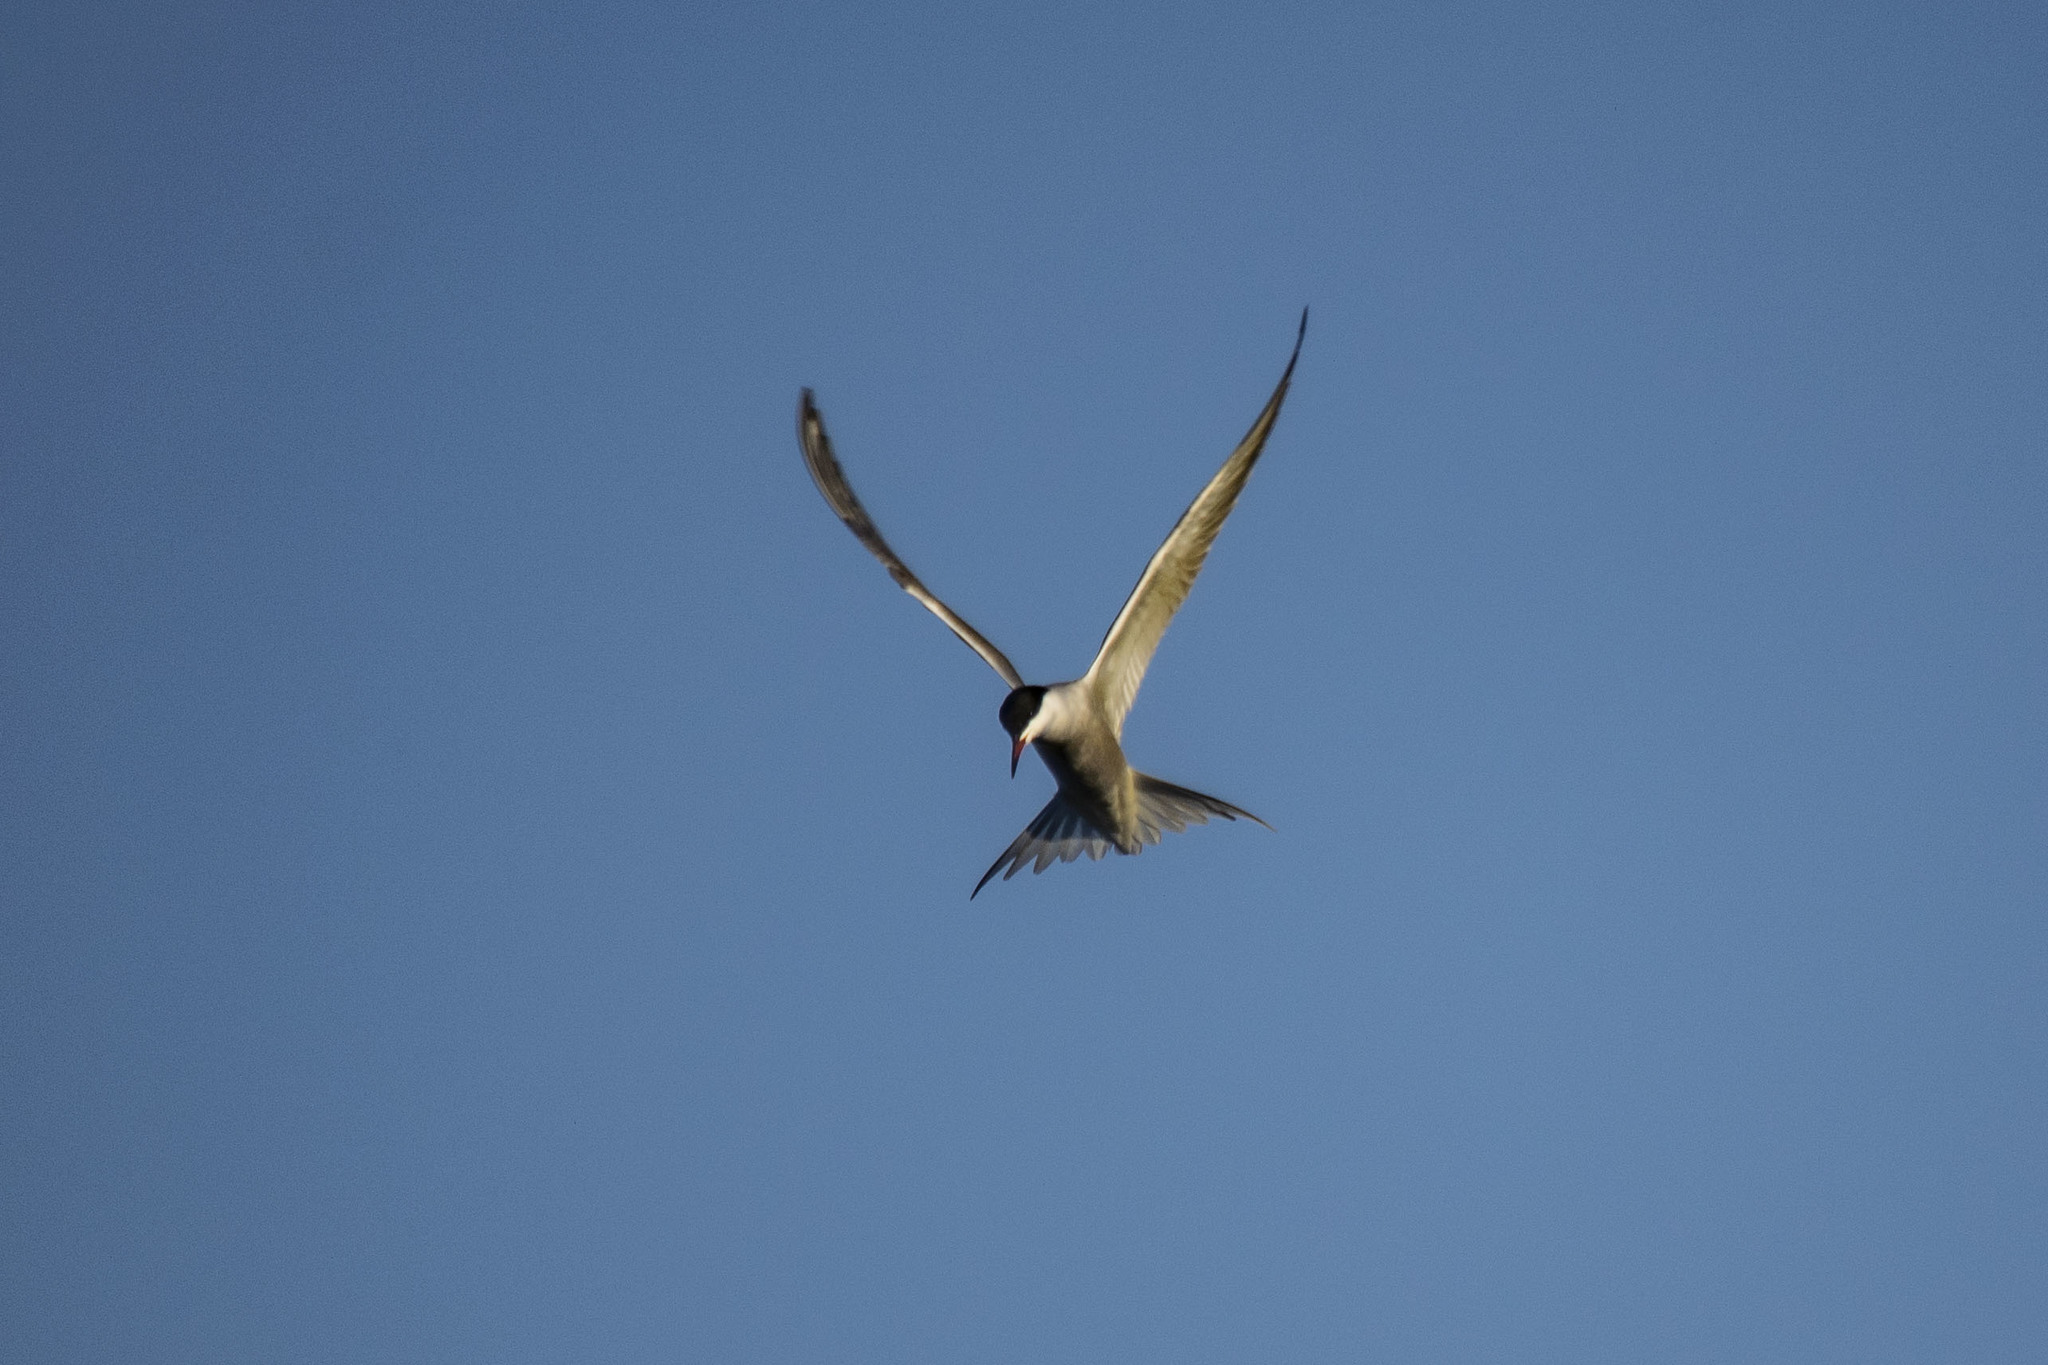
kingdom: Animalia
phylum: Chordata
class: Aves
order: Charadriiformes
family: Laridae
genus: Sterna
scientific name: Sterna hirundo
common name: Common tern
